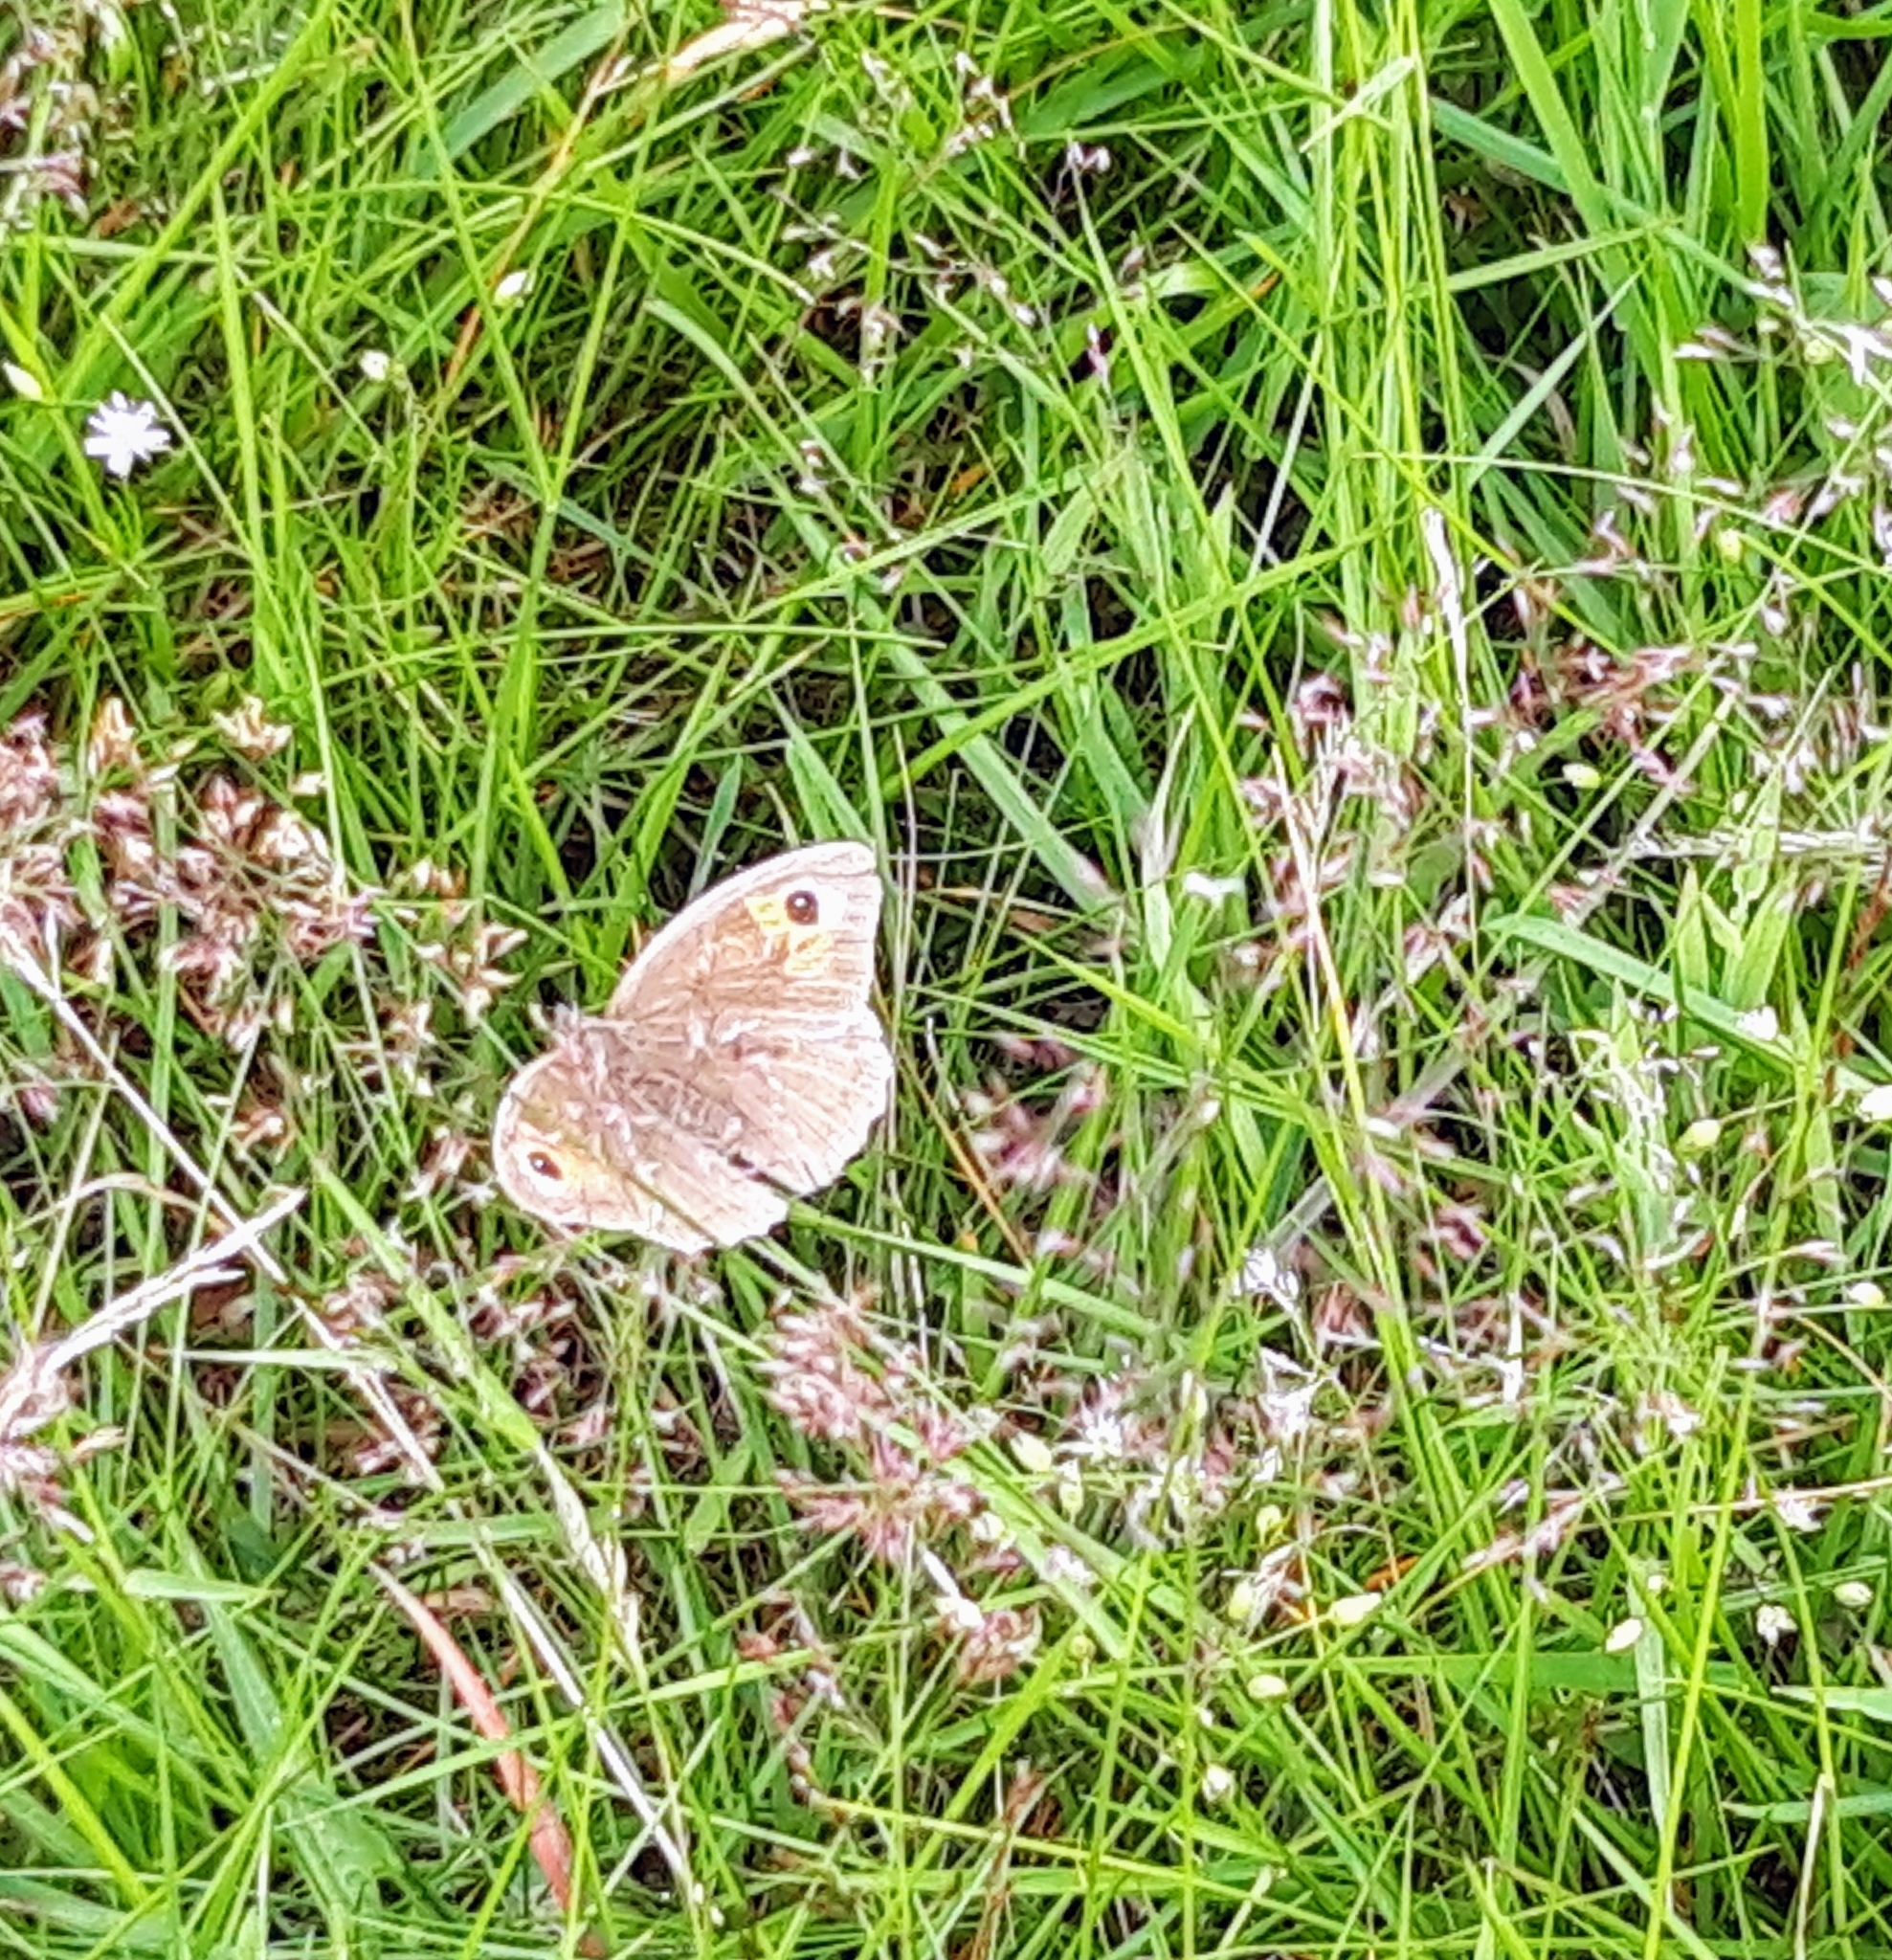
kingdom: Animalia
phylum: Arthropoda
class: Insecta
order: Lepidoptera
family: Nymphalidae
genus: Maniola
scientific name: Maniola jurtina
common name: Meadow brown
